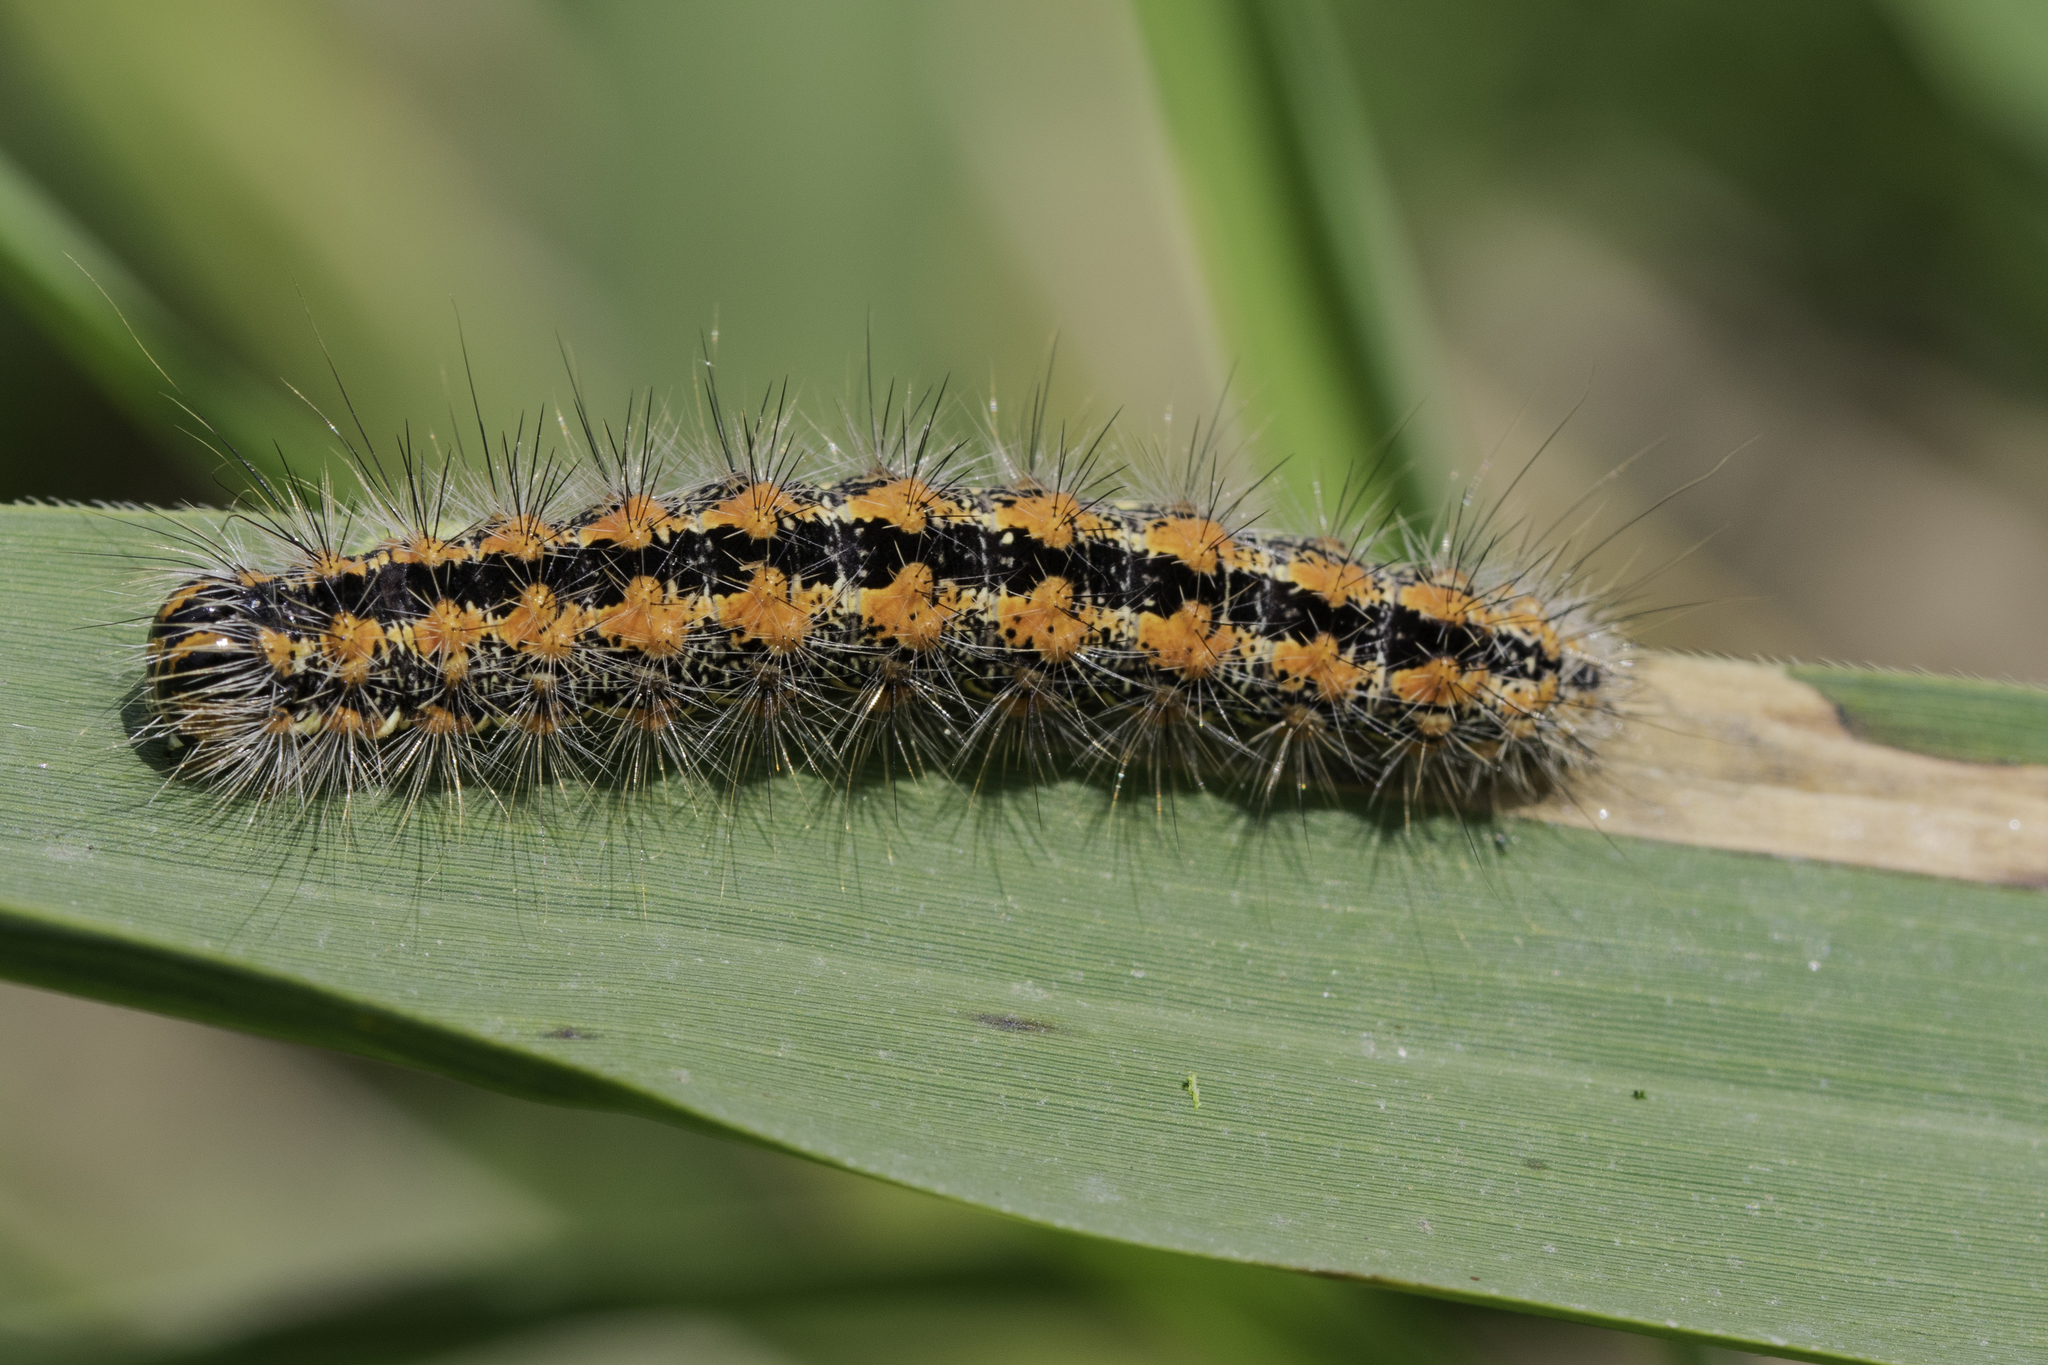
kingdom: Animalia
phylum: Arthropoda
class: Insecta
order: Lepidoptera
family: Noctuidae
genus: Simyra
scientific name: Simyra albovenosa
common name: Reed dagger
